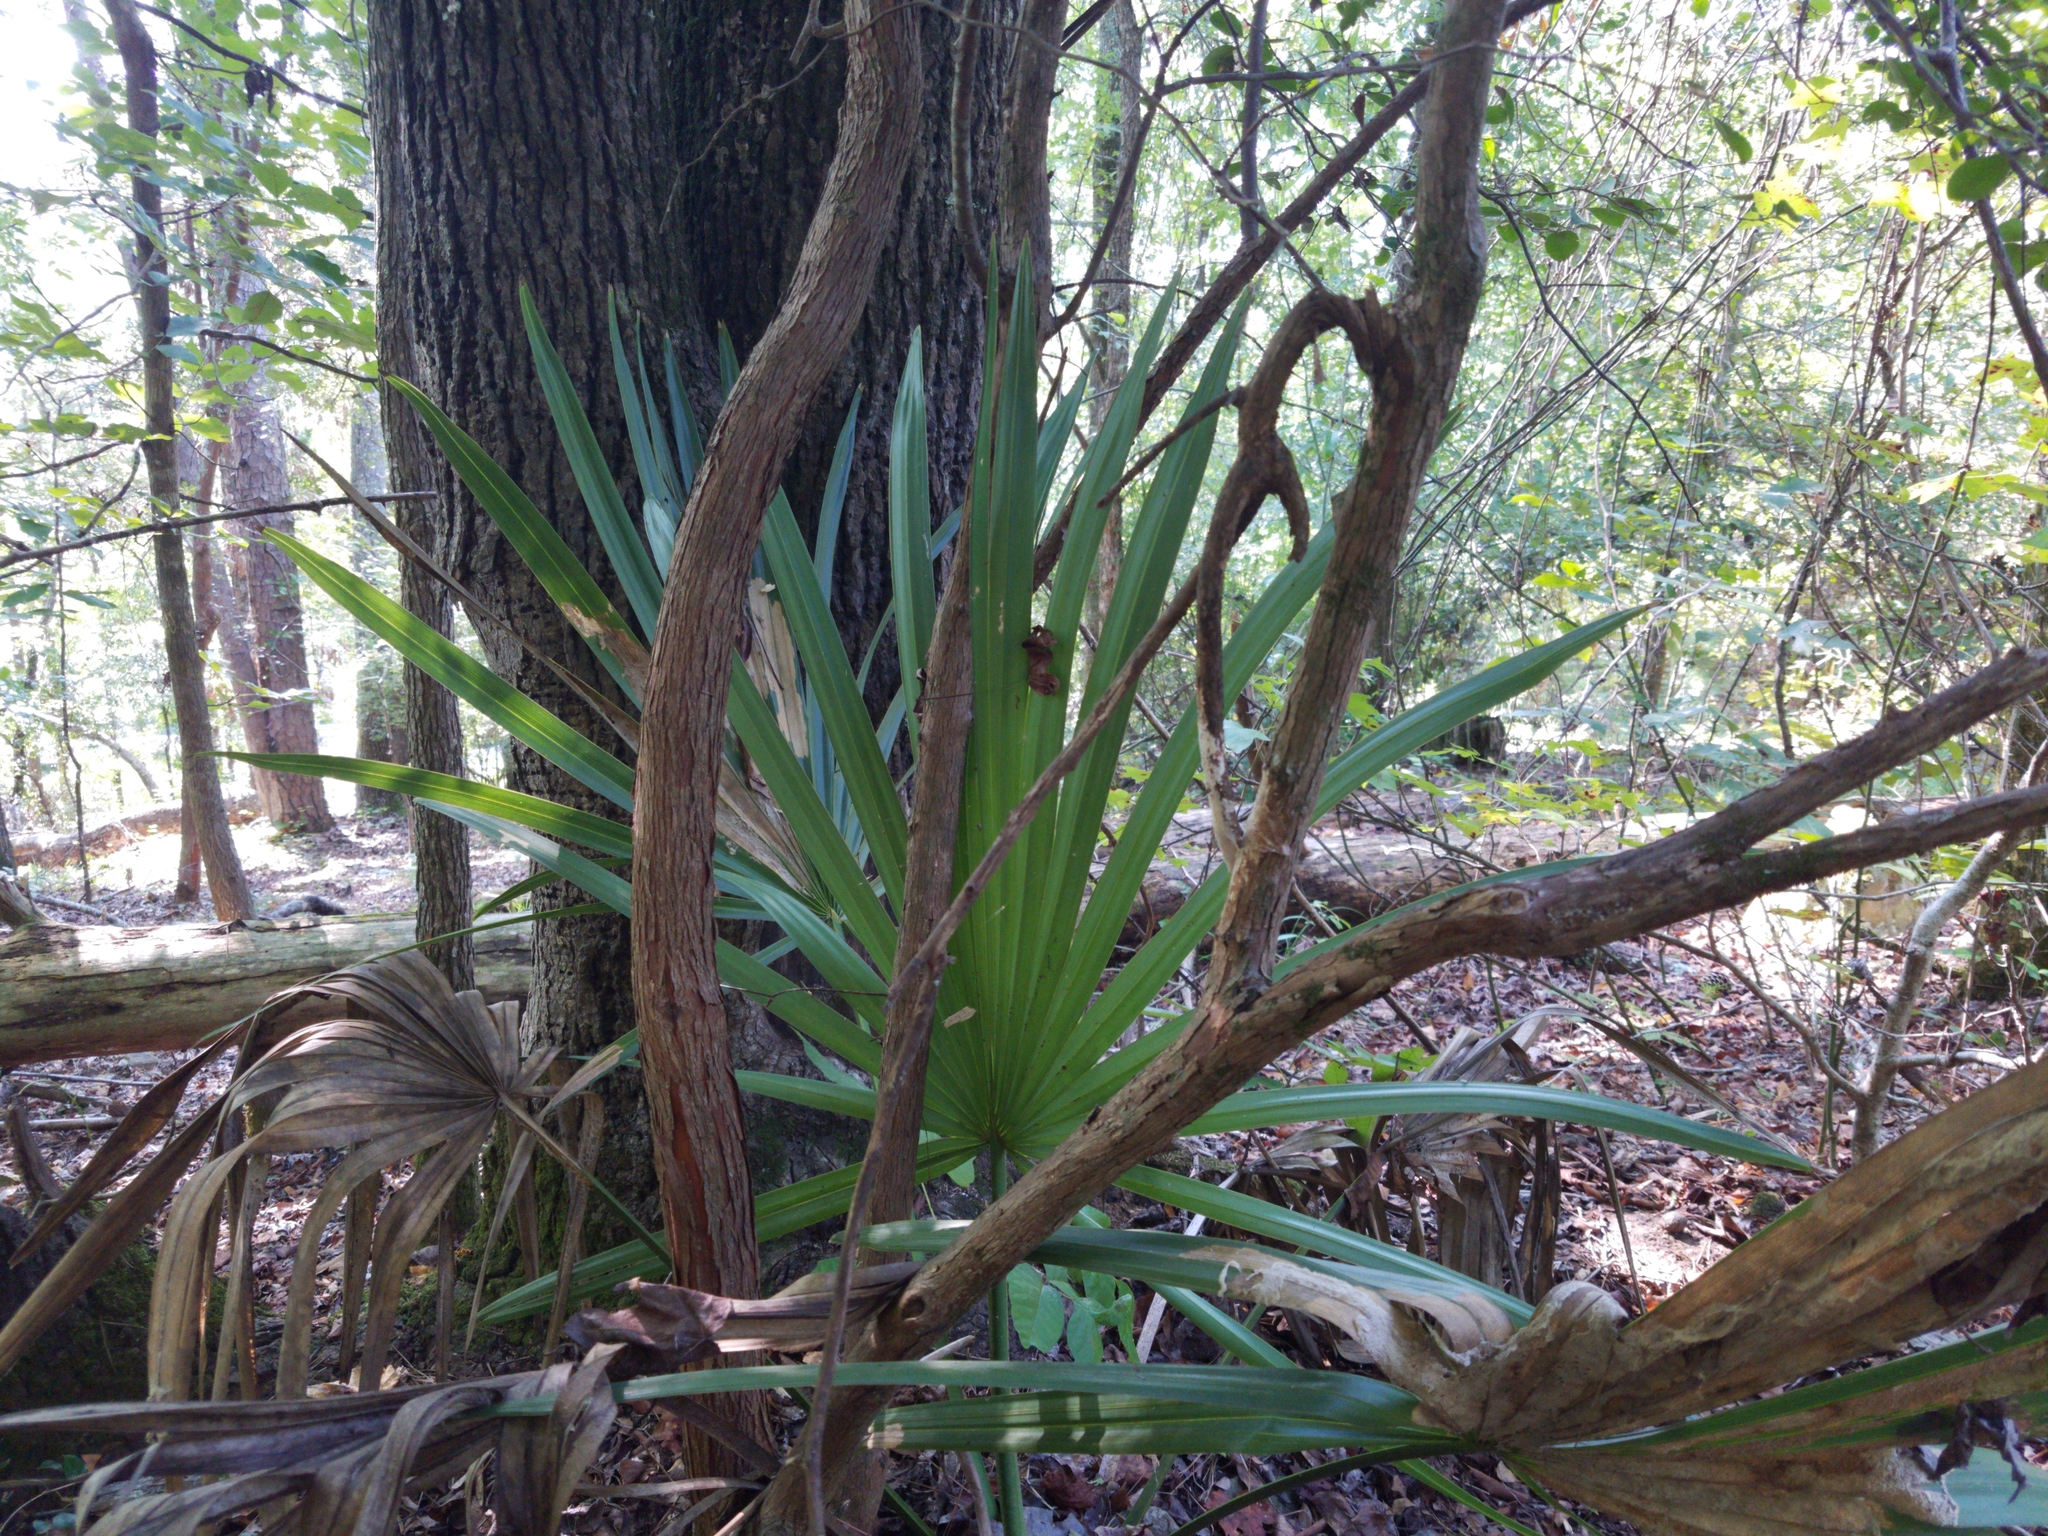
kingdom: Plantae
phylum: Tracheophyta
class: Liliopsida
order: Arecales
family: Arecaceae
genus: Sabal
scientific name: Sabal minor
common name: Dwarf palmetto
